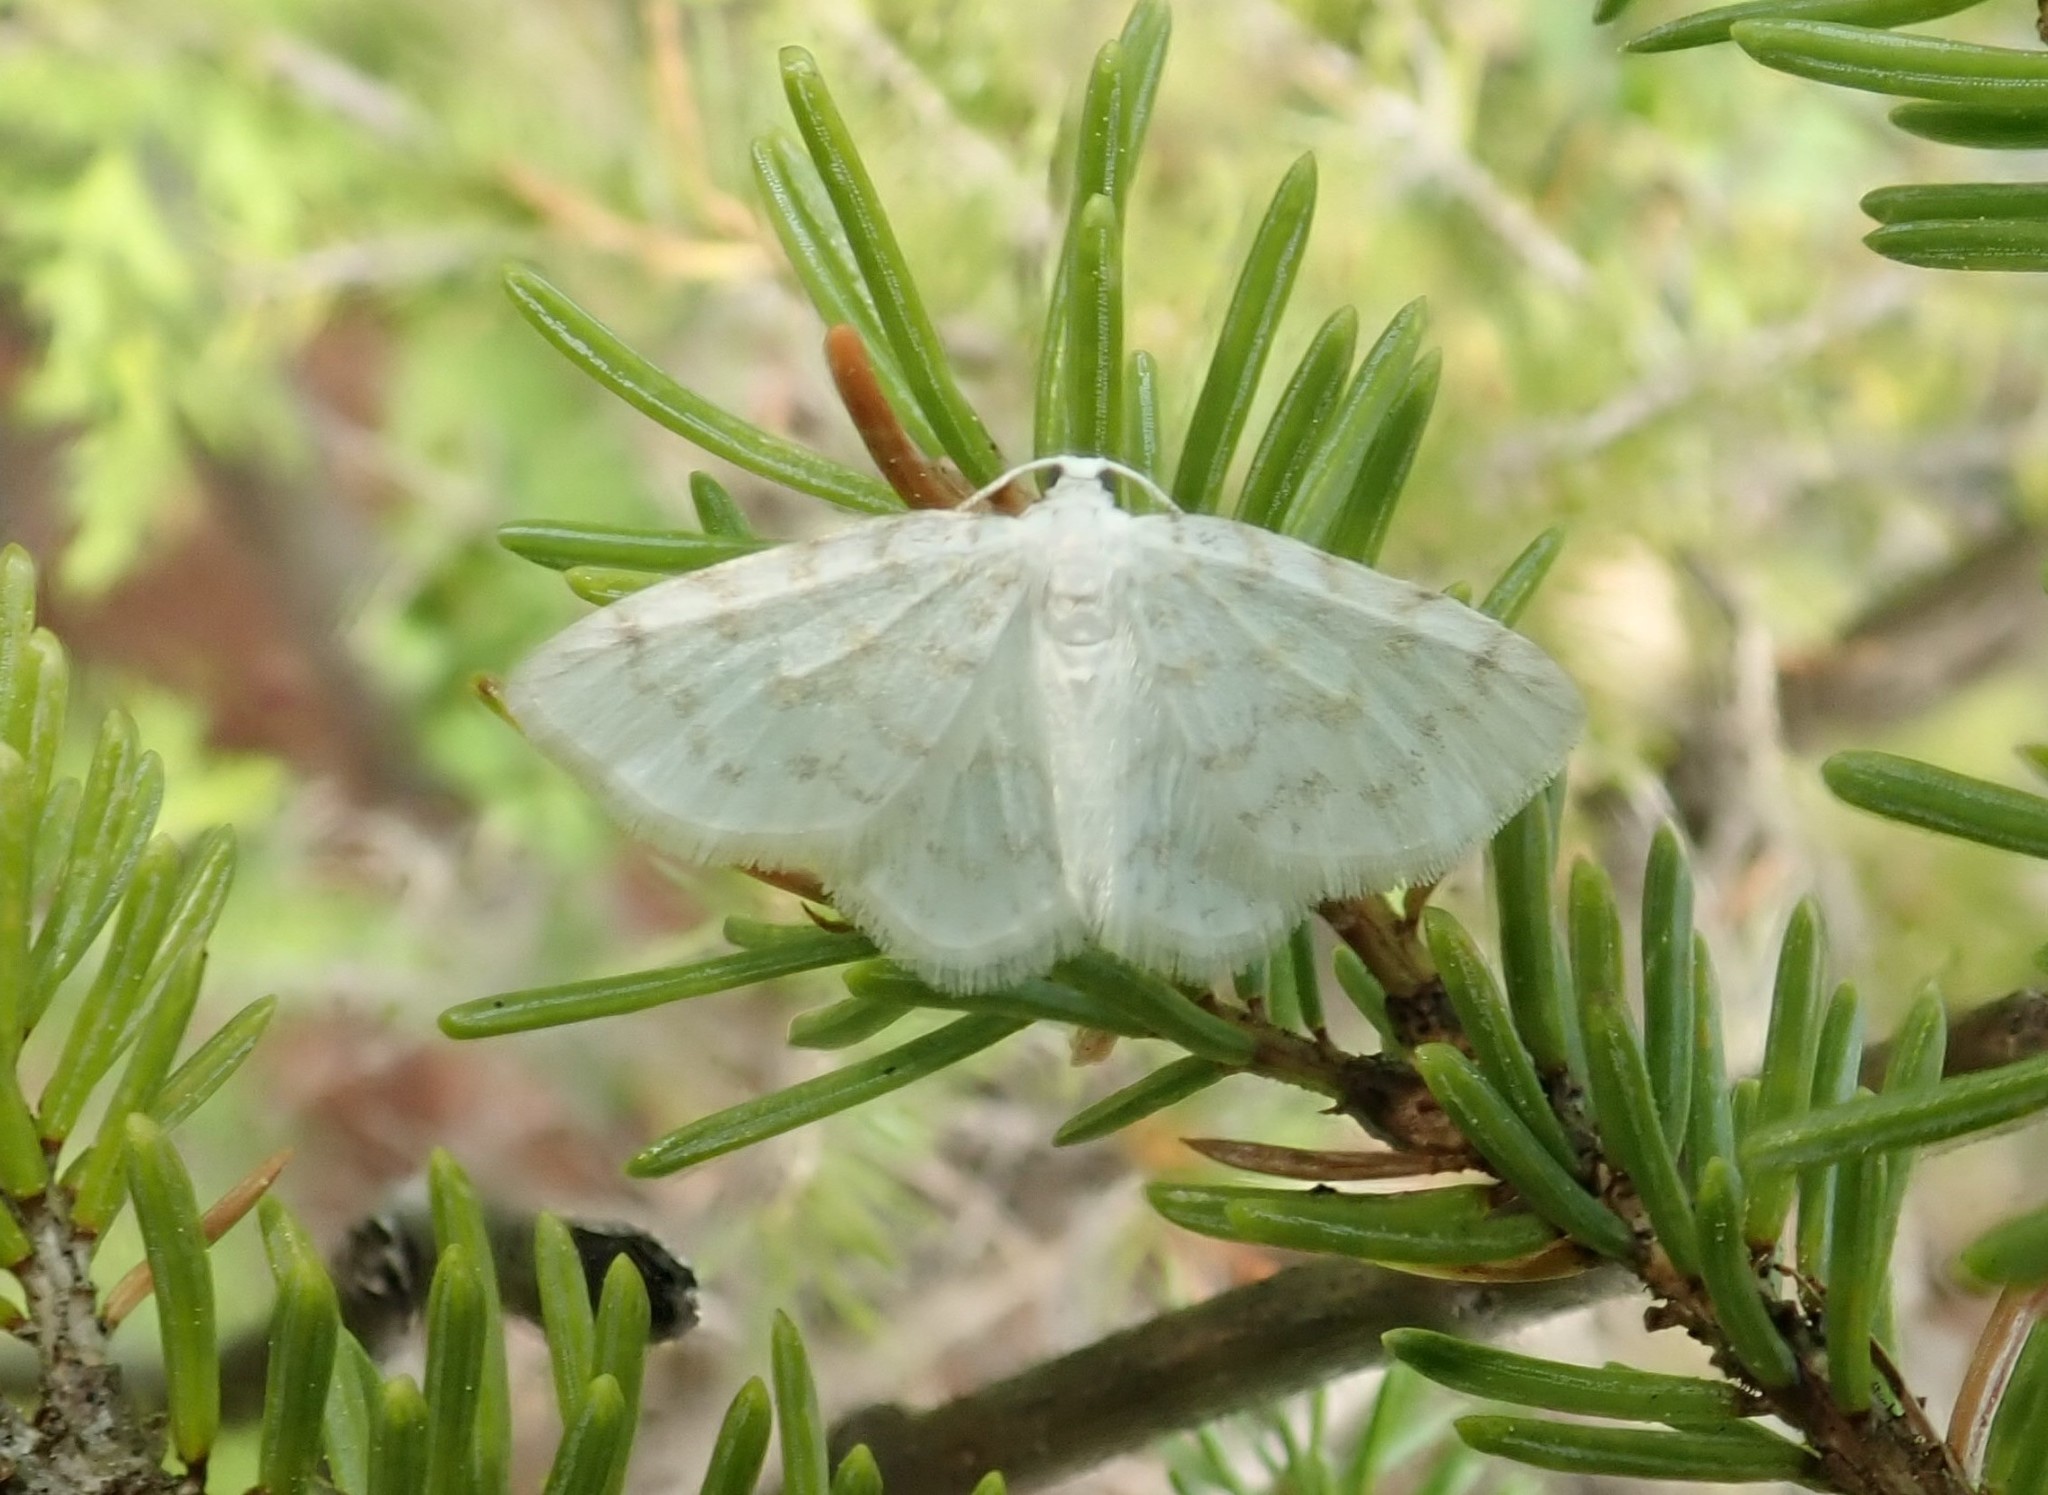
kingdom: Animalia
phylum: Arthropoda
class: Insecta
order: Lepidoptera
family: Geometridae
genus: Hydrelia
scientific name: Hydrelia albifera
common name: Fragile white carpet
